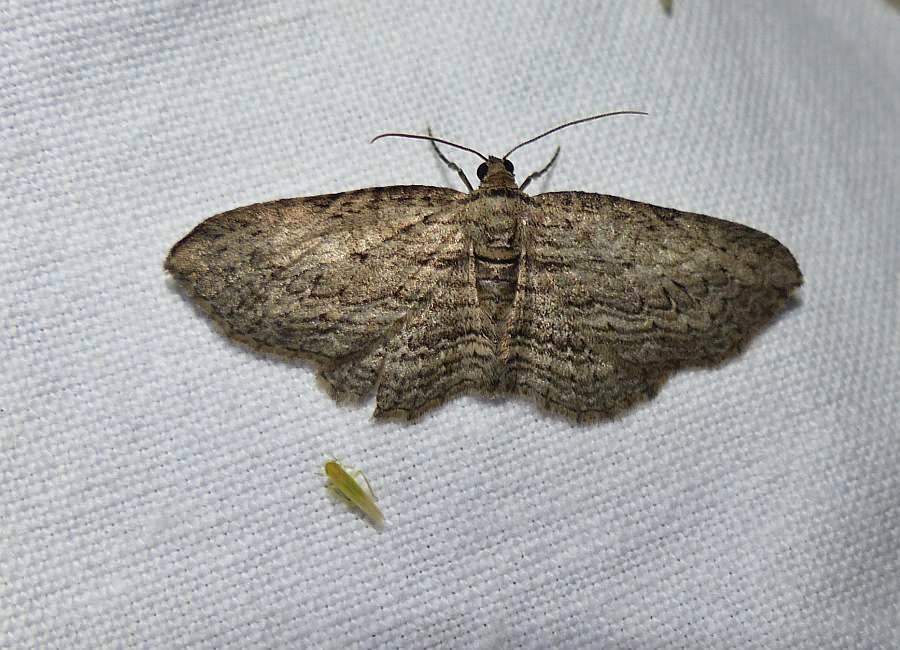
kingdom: Animalia
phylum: Arthropoda
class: Insecta
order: Lepidoptera
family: Geometridae
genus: Horisme
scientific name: Horisme intestinata
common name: Brown bark carpet
